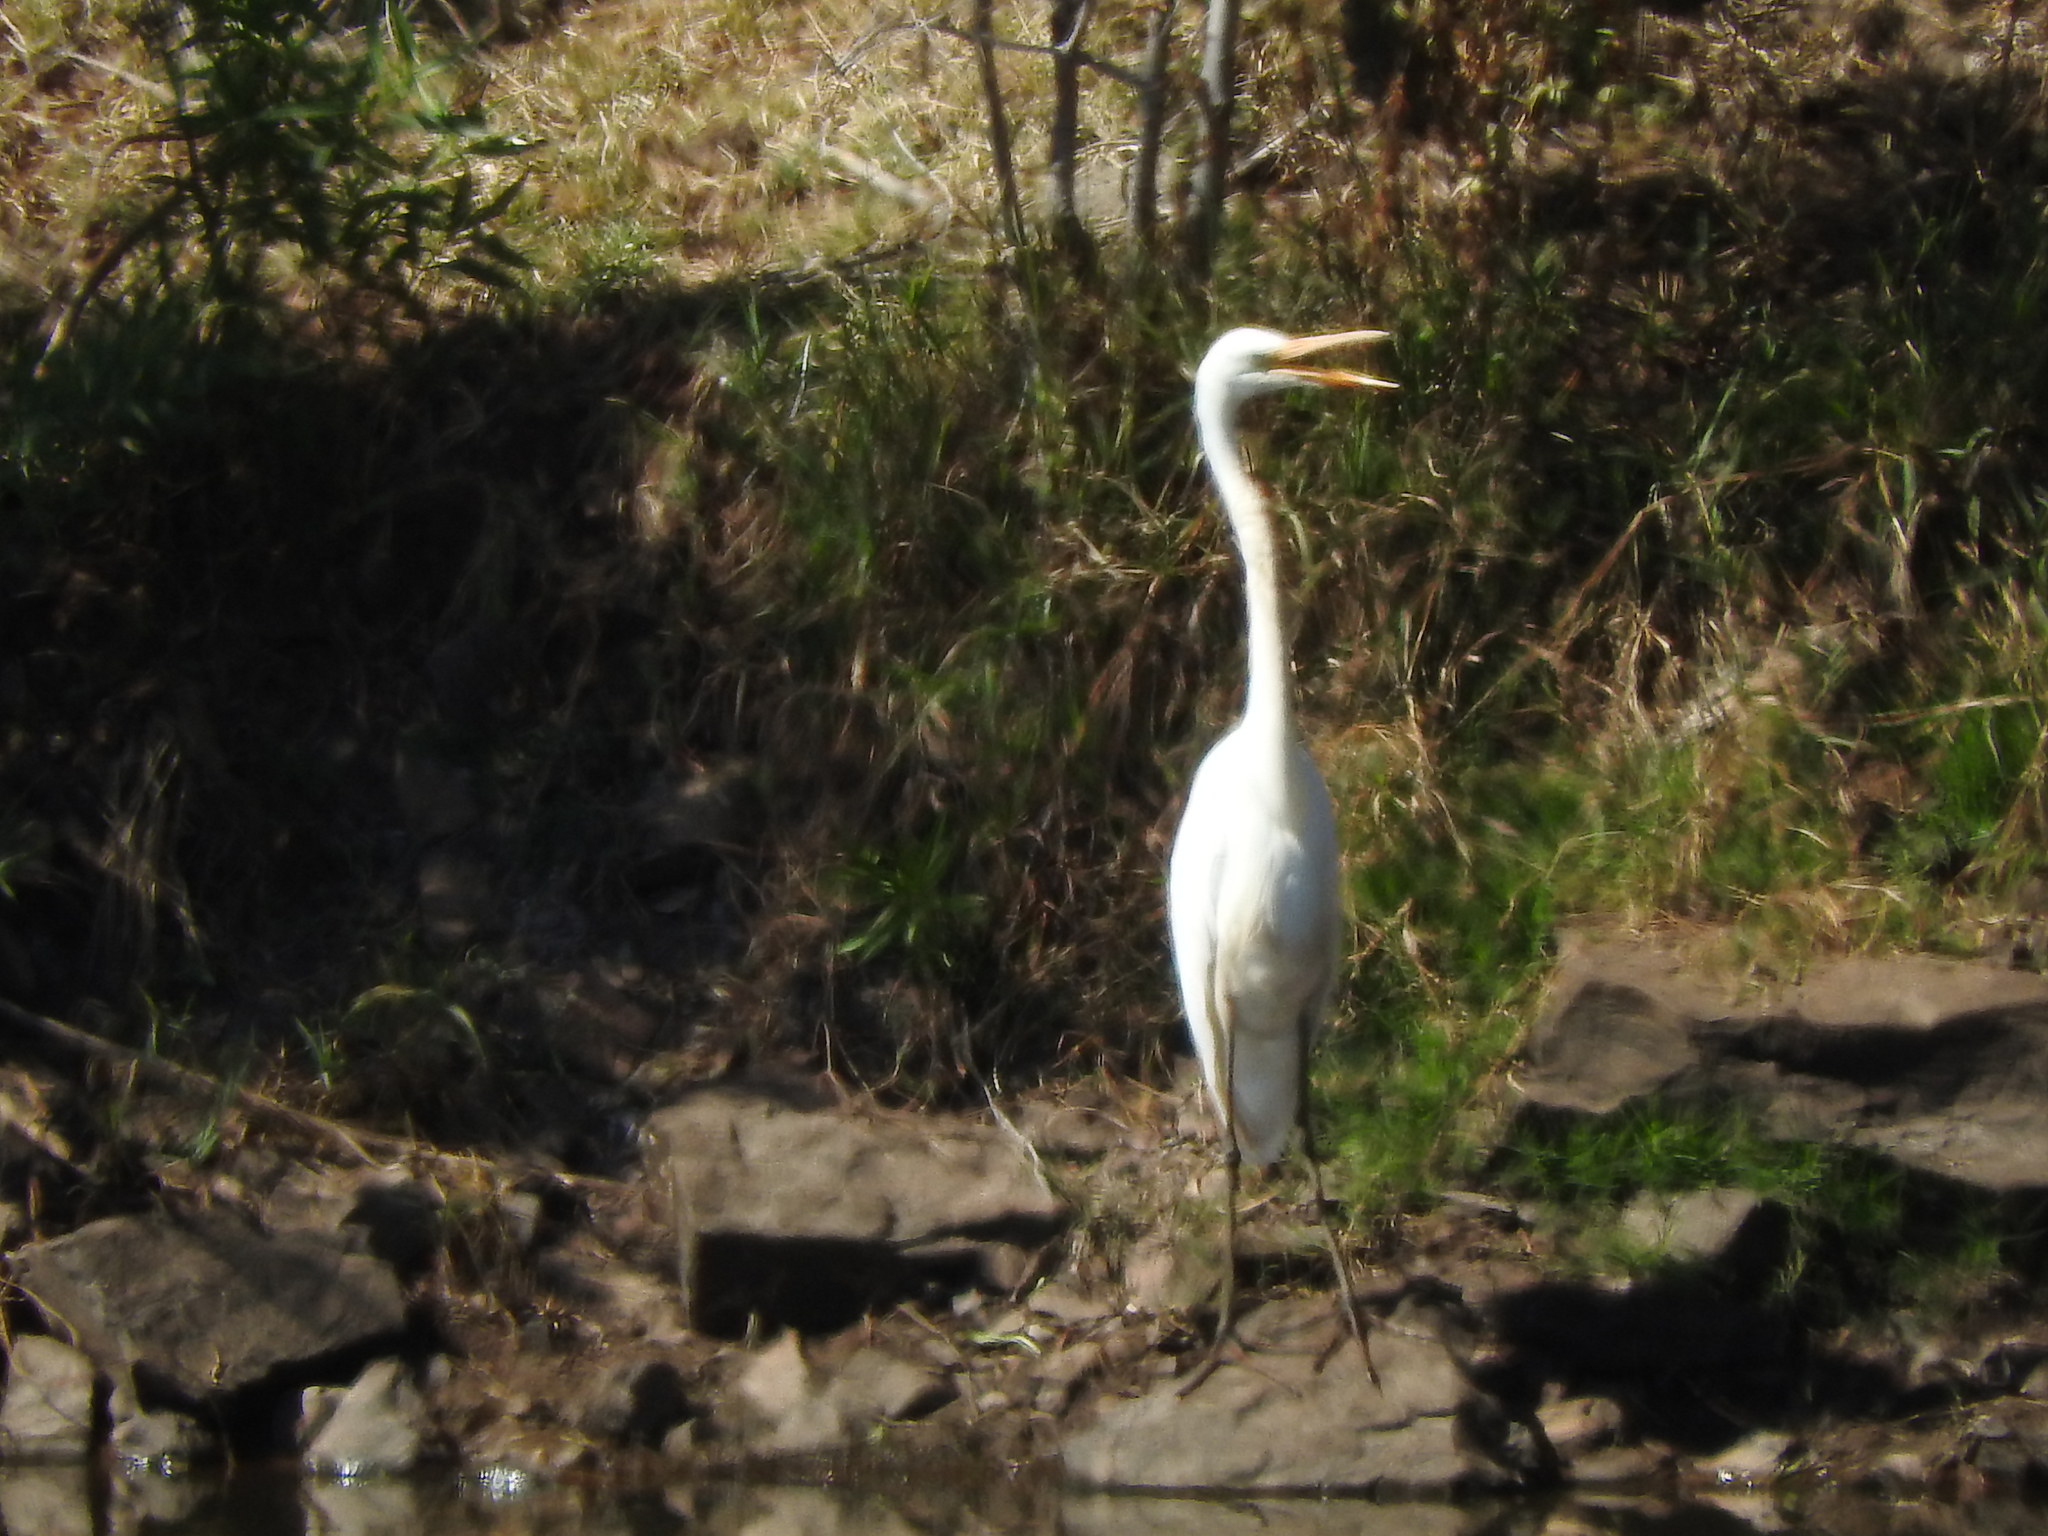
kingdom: Animalia
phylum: Chordata
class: Aves
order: Pelecaniformes
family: Ardeidae
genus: Ardea
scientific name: Ardea alba
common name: Great egret
